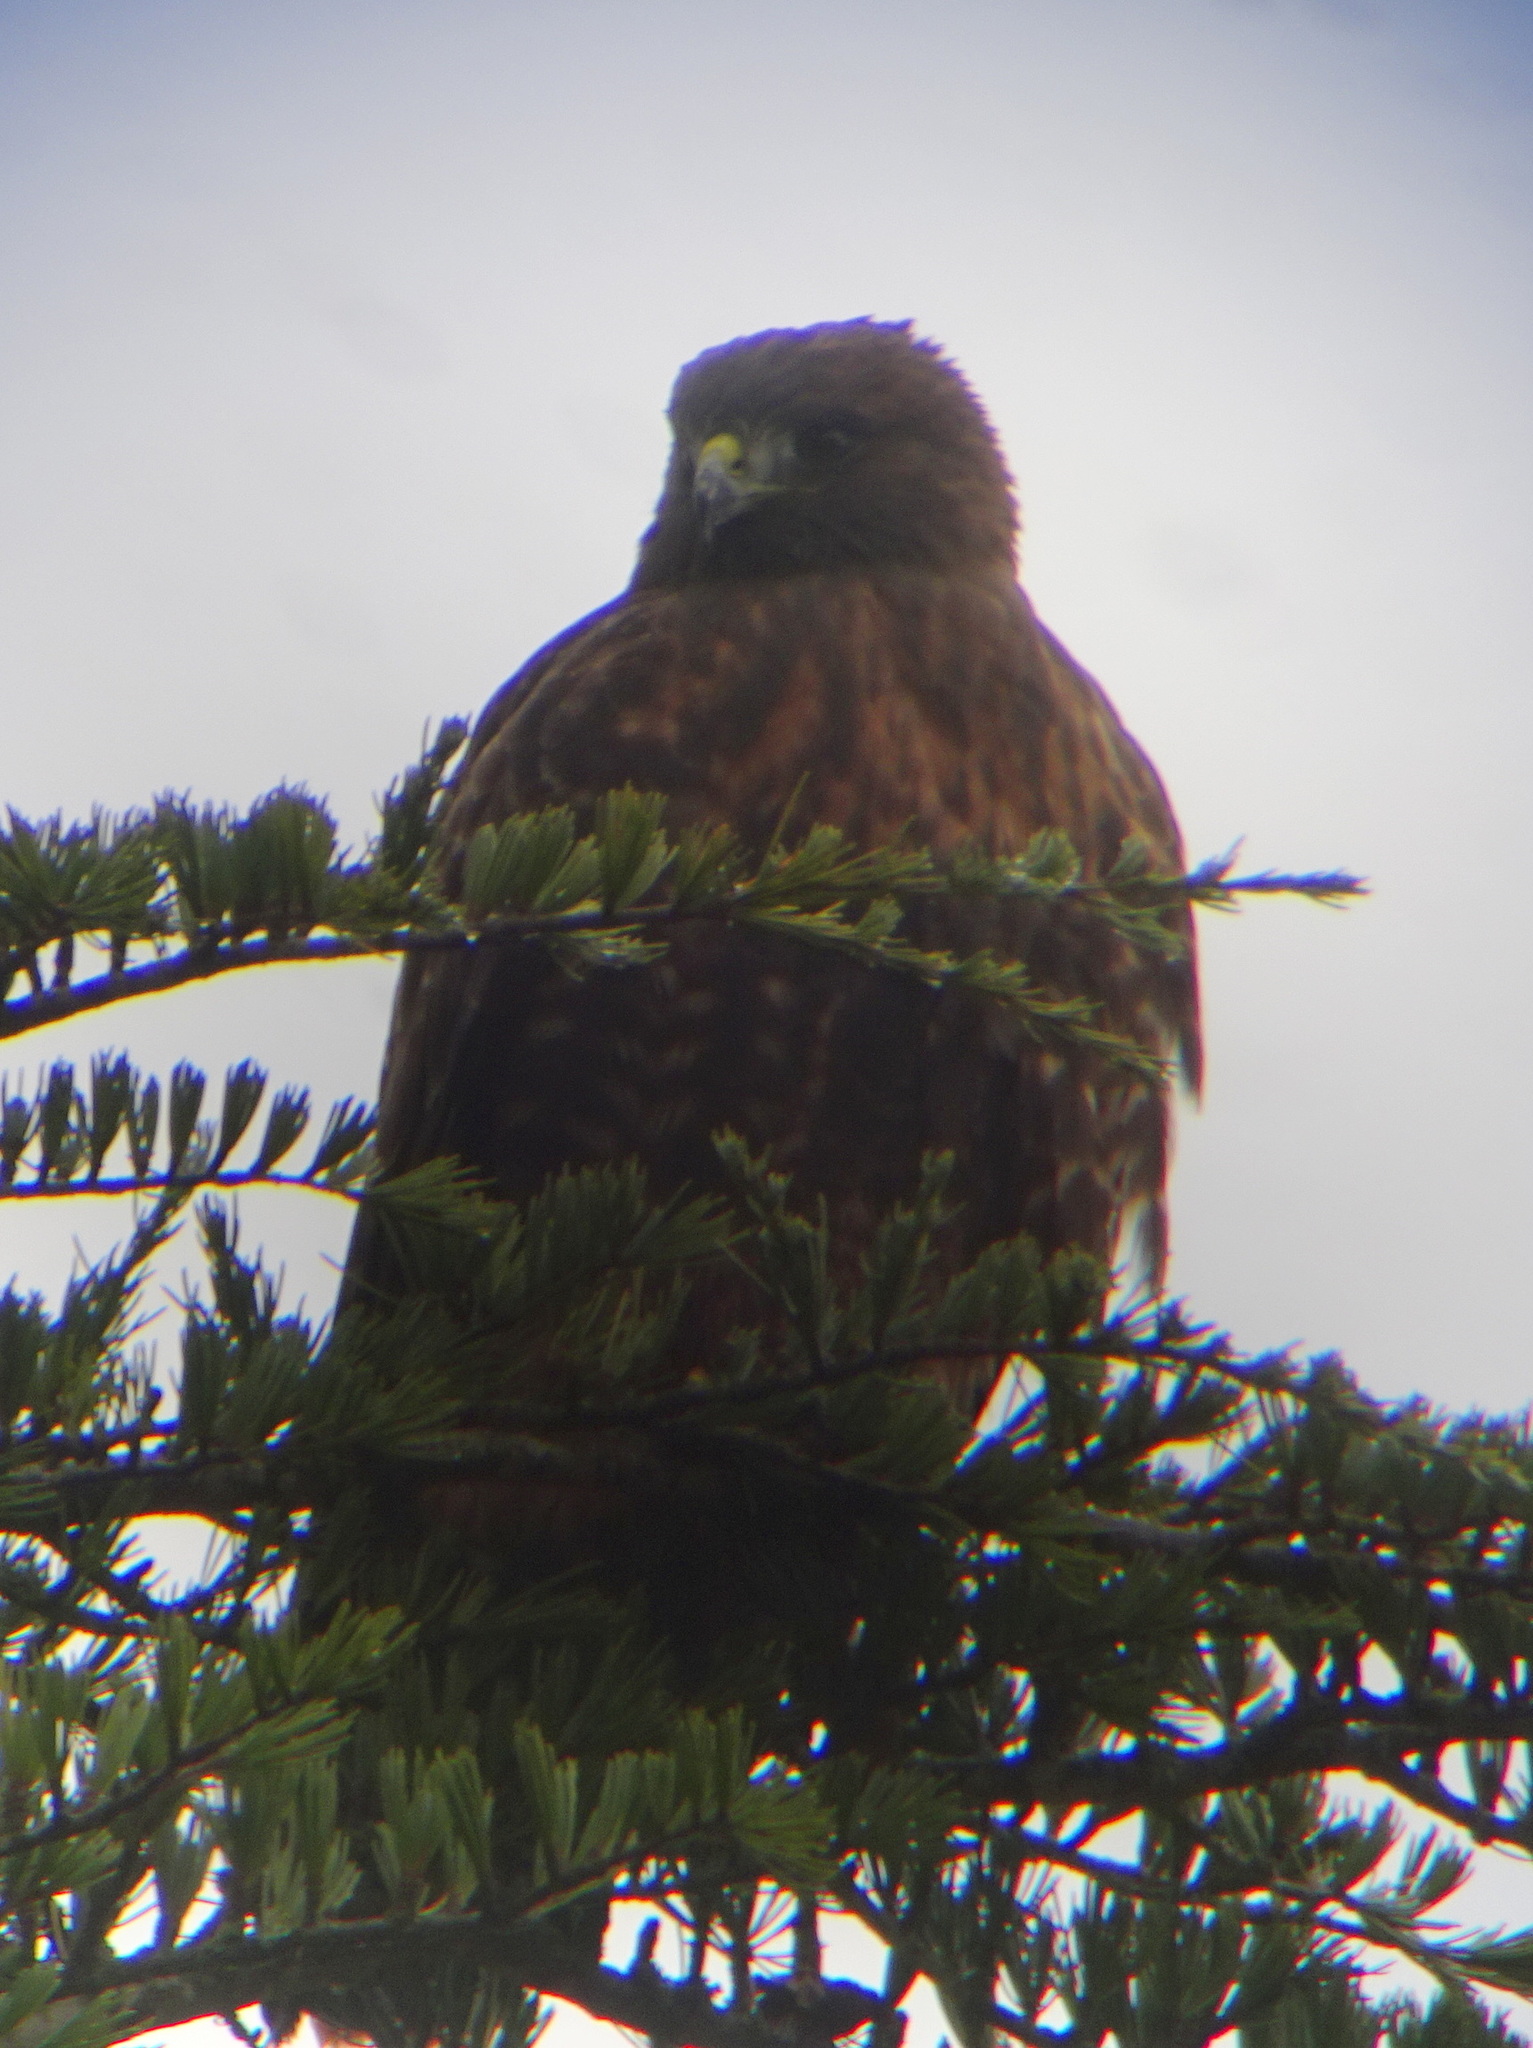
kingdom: Animalia
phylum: Chordata
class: Aves
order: Accipitriformes
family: Accipitridae
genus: Buteo
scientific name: Buteo jamaicensis
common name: Red-tailed hawk
